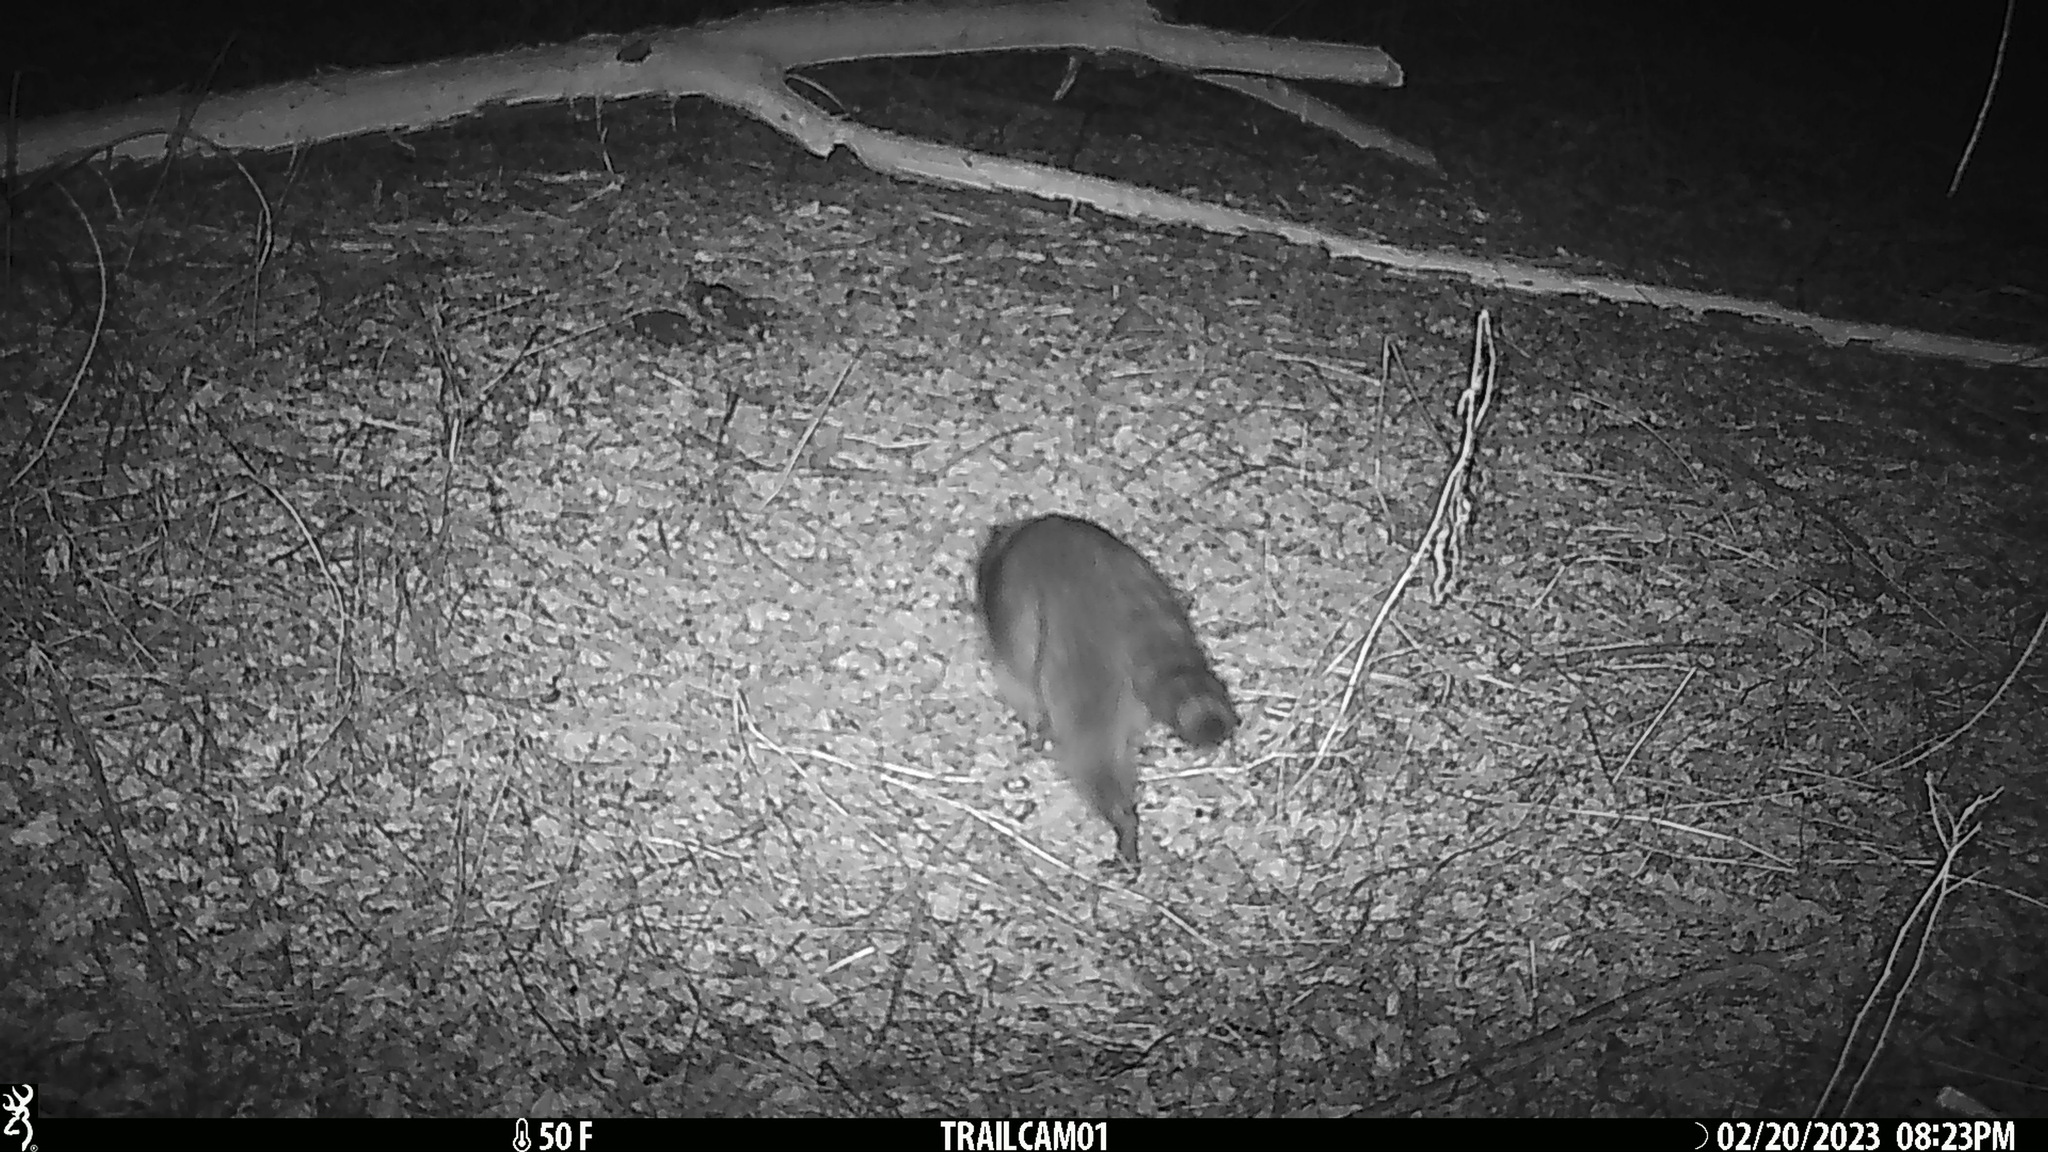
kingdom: Animalia
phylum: Chordata
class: Mammalia
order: Carnivora
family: Procyonidae
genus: Procyon
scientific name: Procyon lotor
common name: Raccoon
